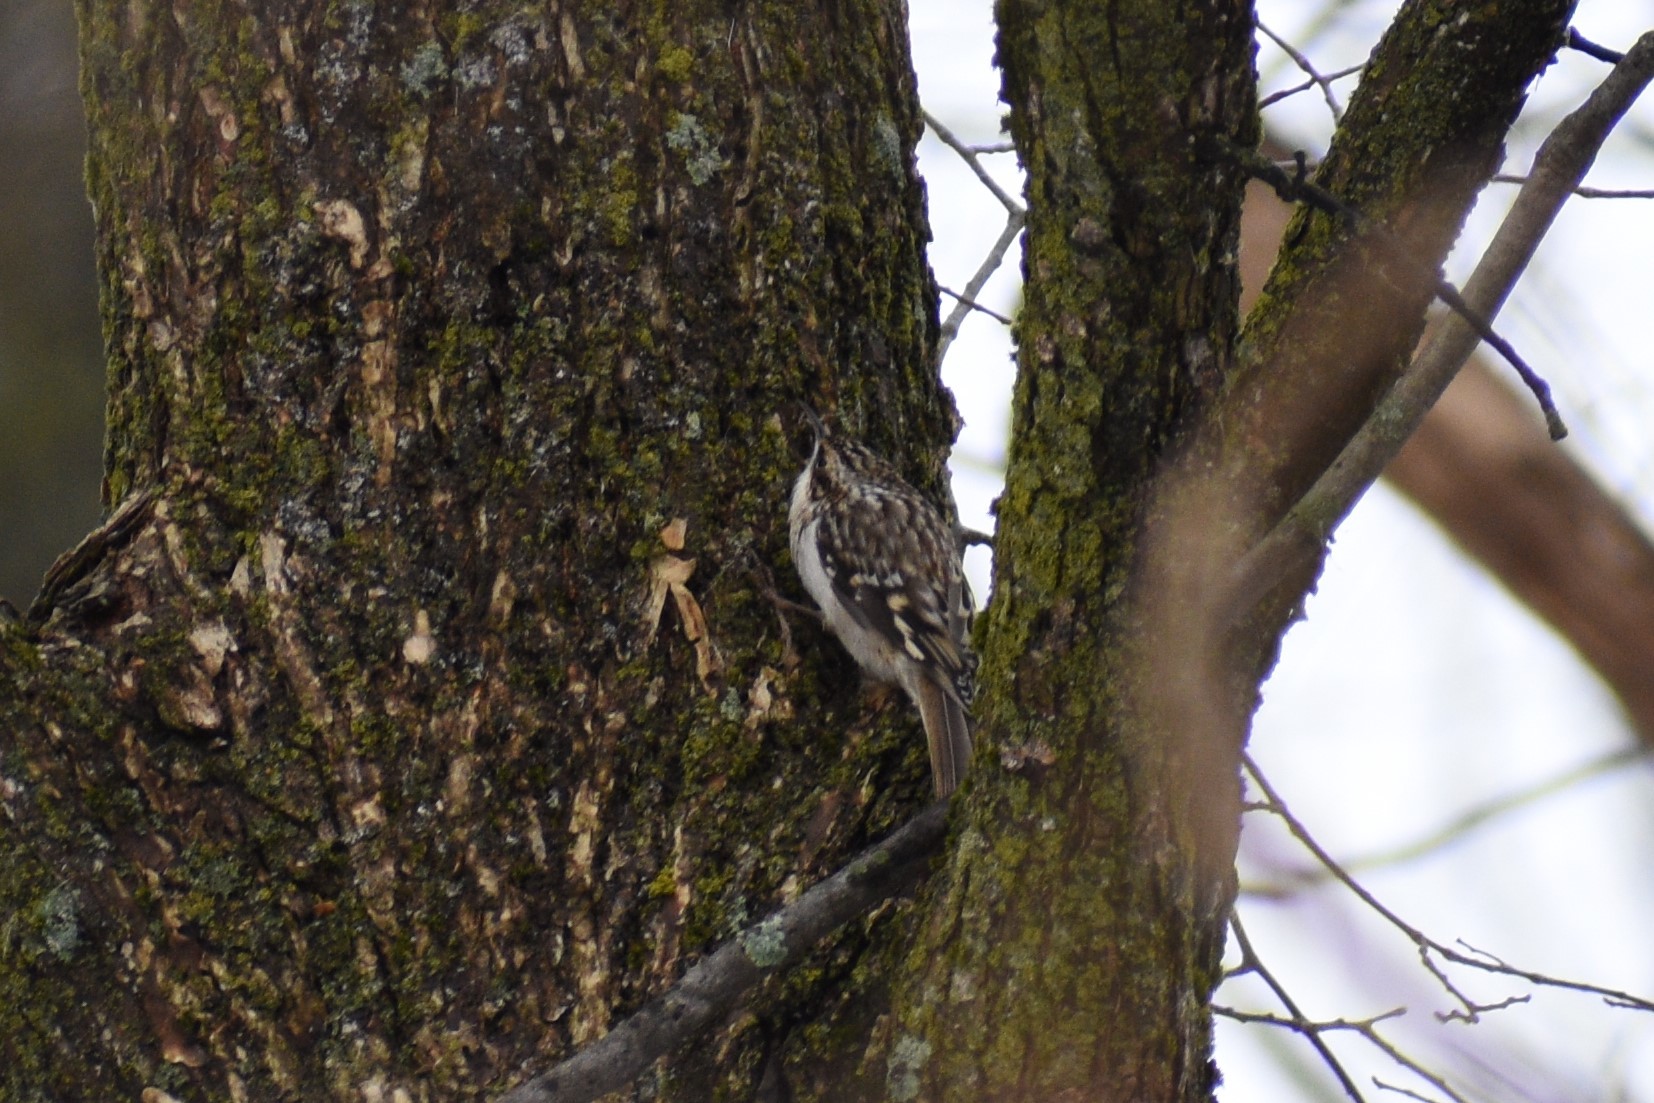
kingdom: Animalia
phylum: Chordata
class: Aves
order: Passeriformes
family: Certhiidae
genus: Certhia
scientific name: Certhia americana
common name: Brown creeper
